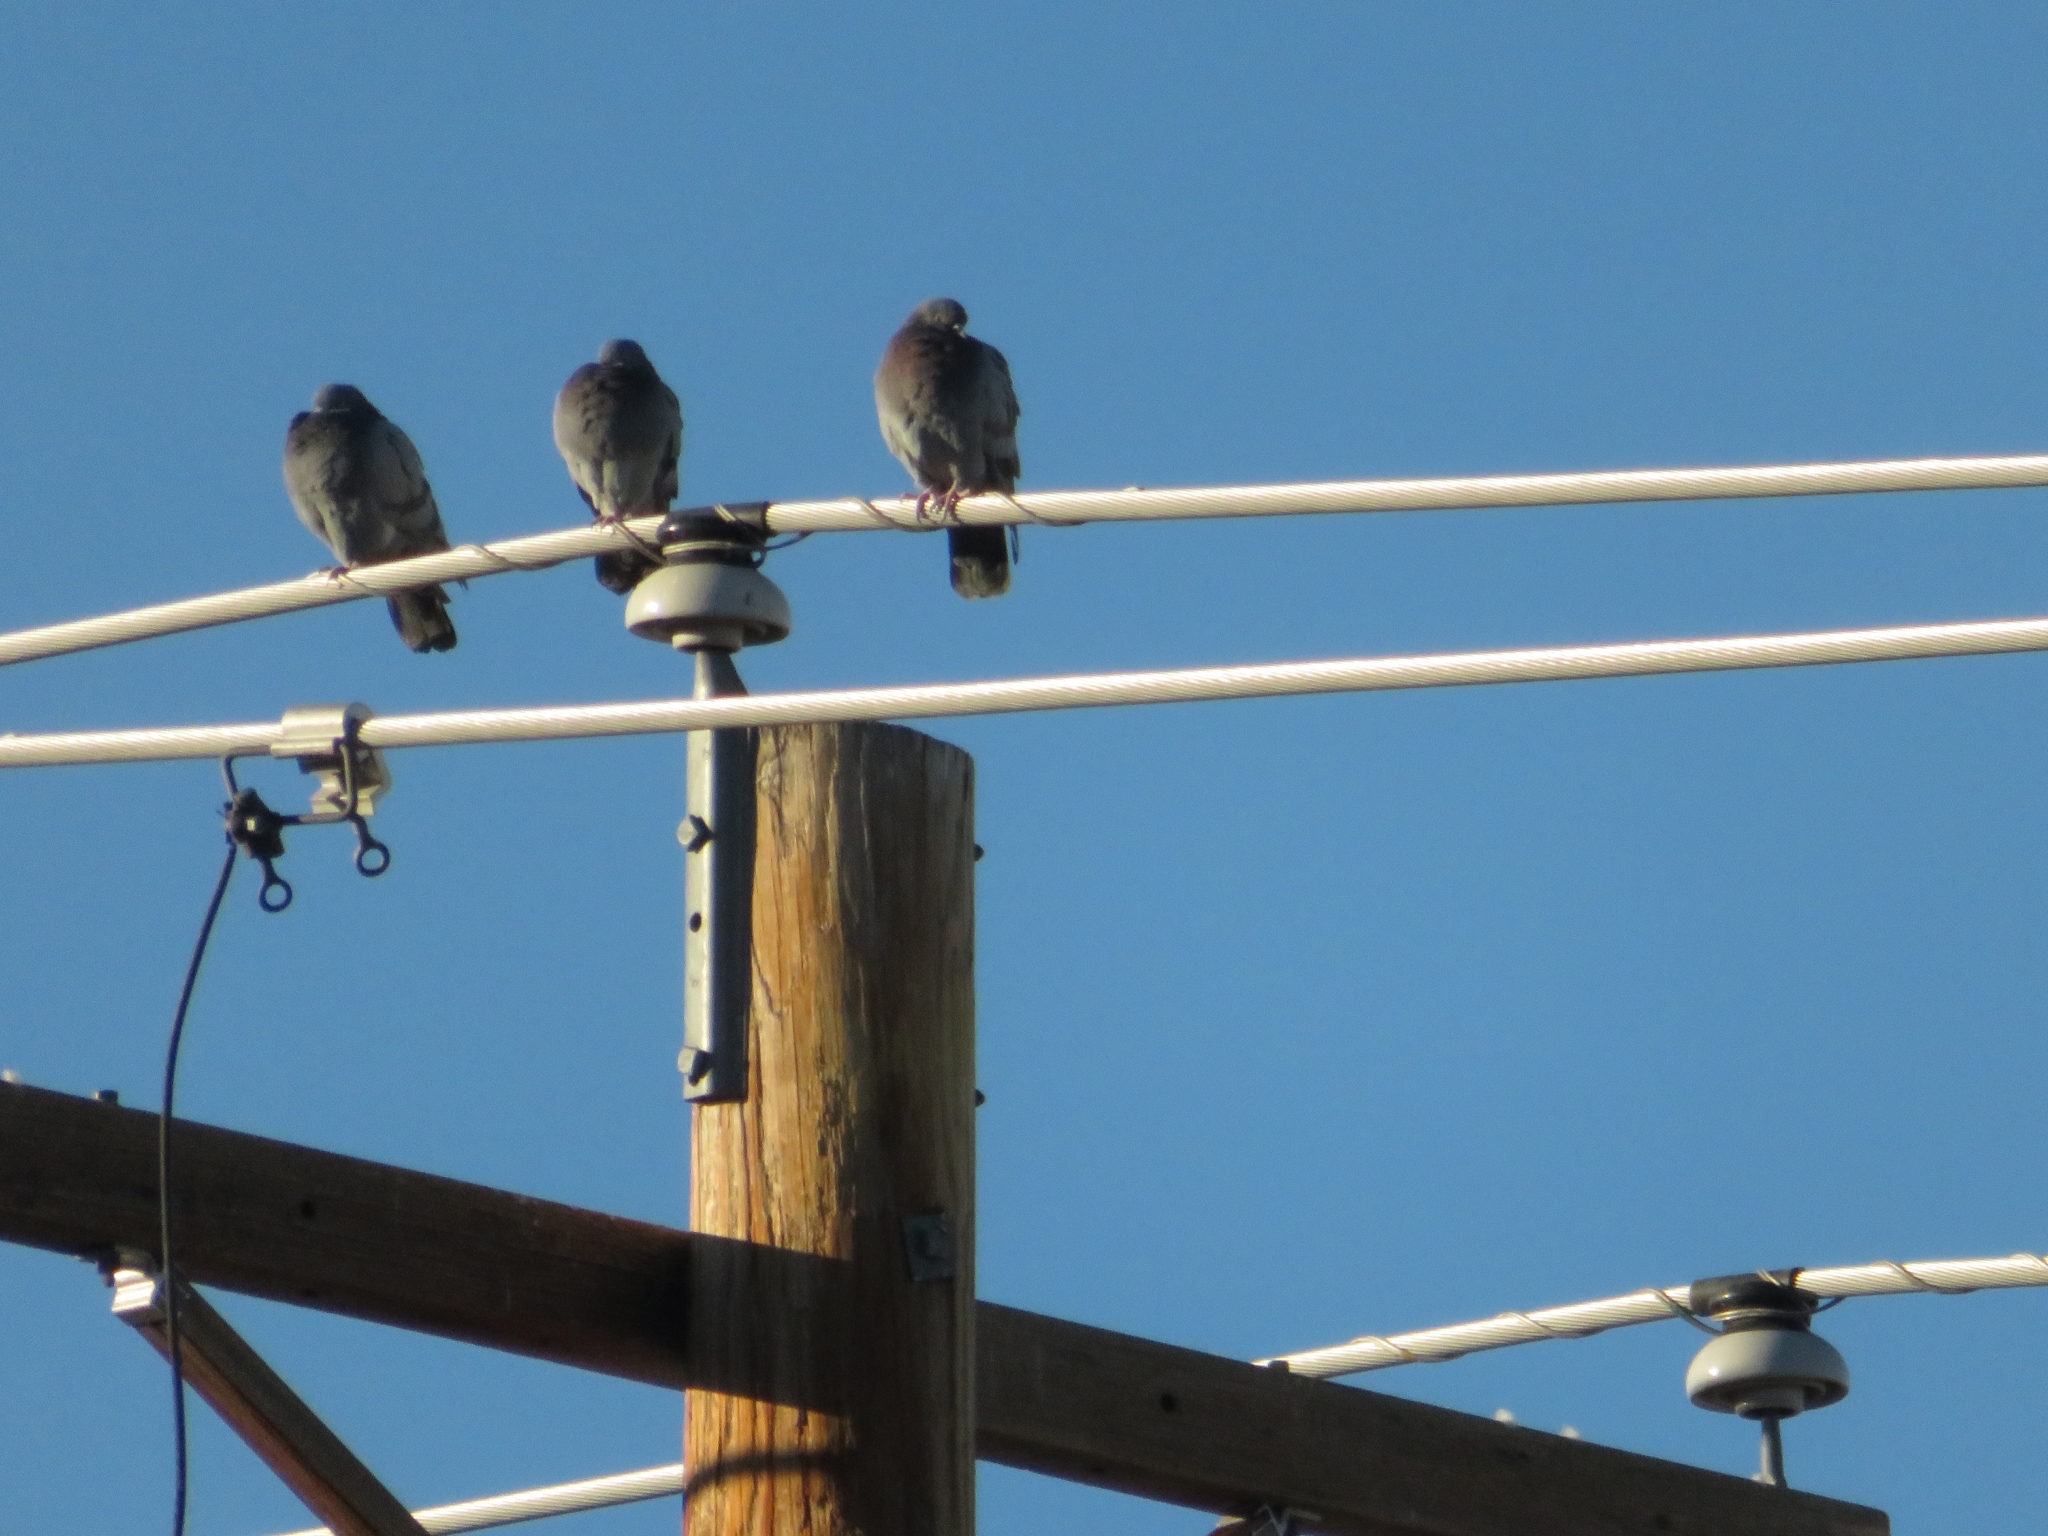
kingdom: Animalia
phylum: Chordata
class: Aves
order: Columbiformes
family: Columbidae
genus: Columba
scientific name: Columba livia
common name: Rock pigeon
